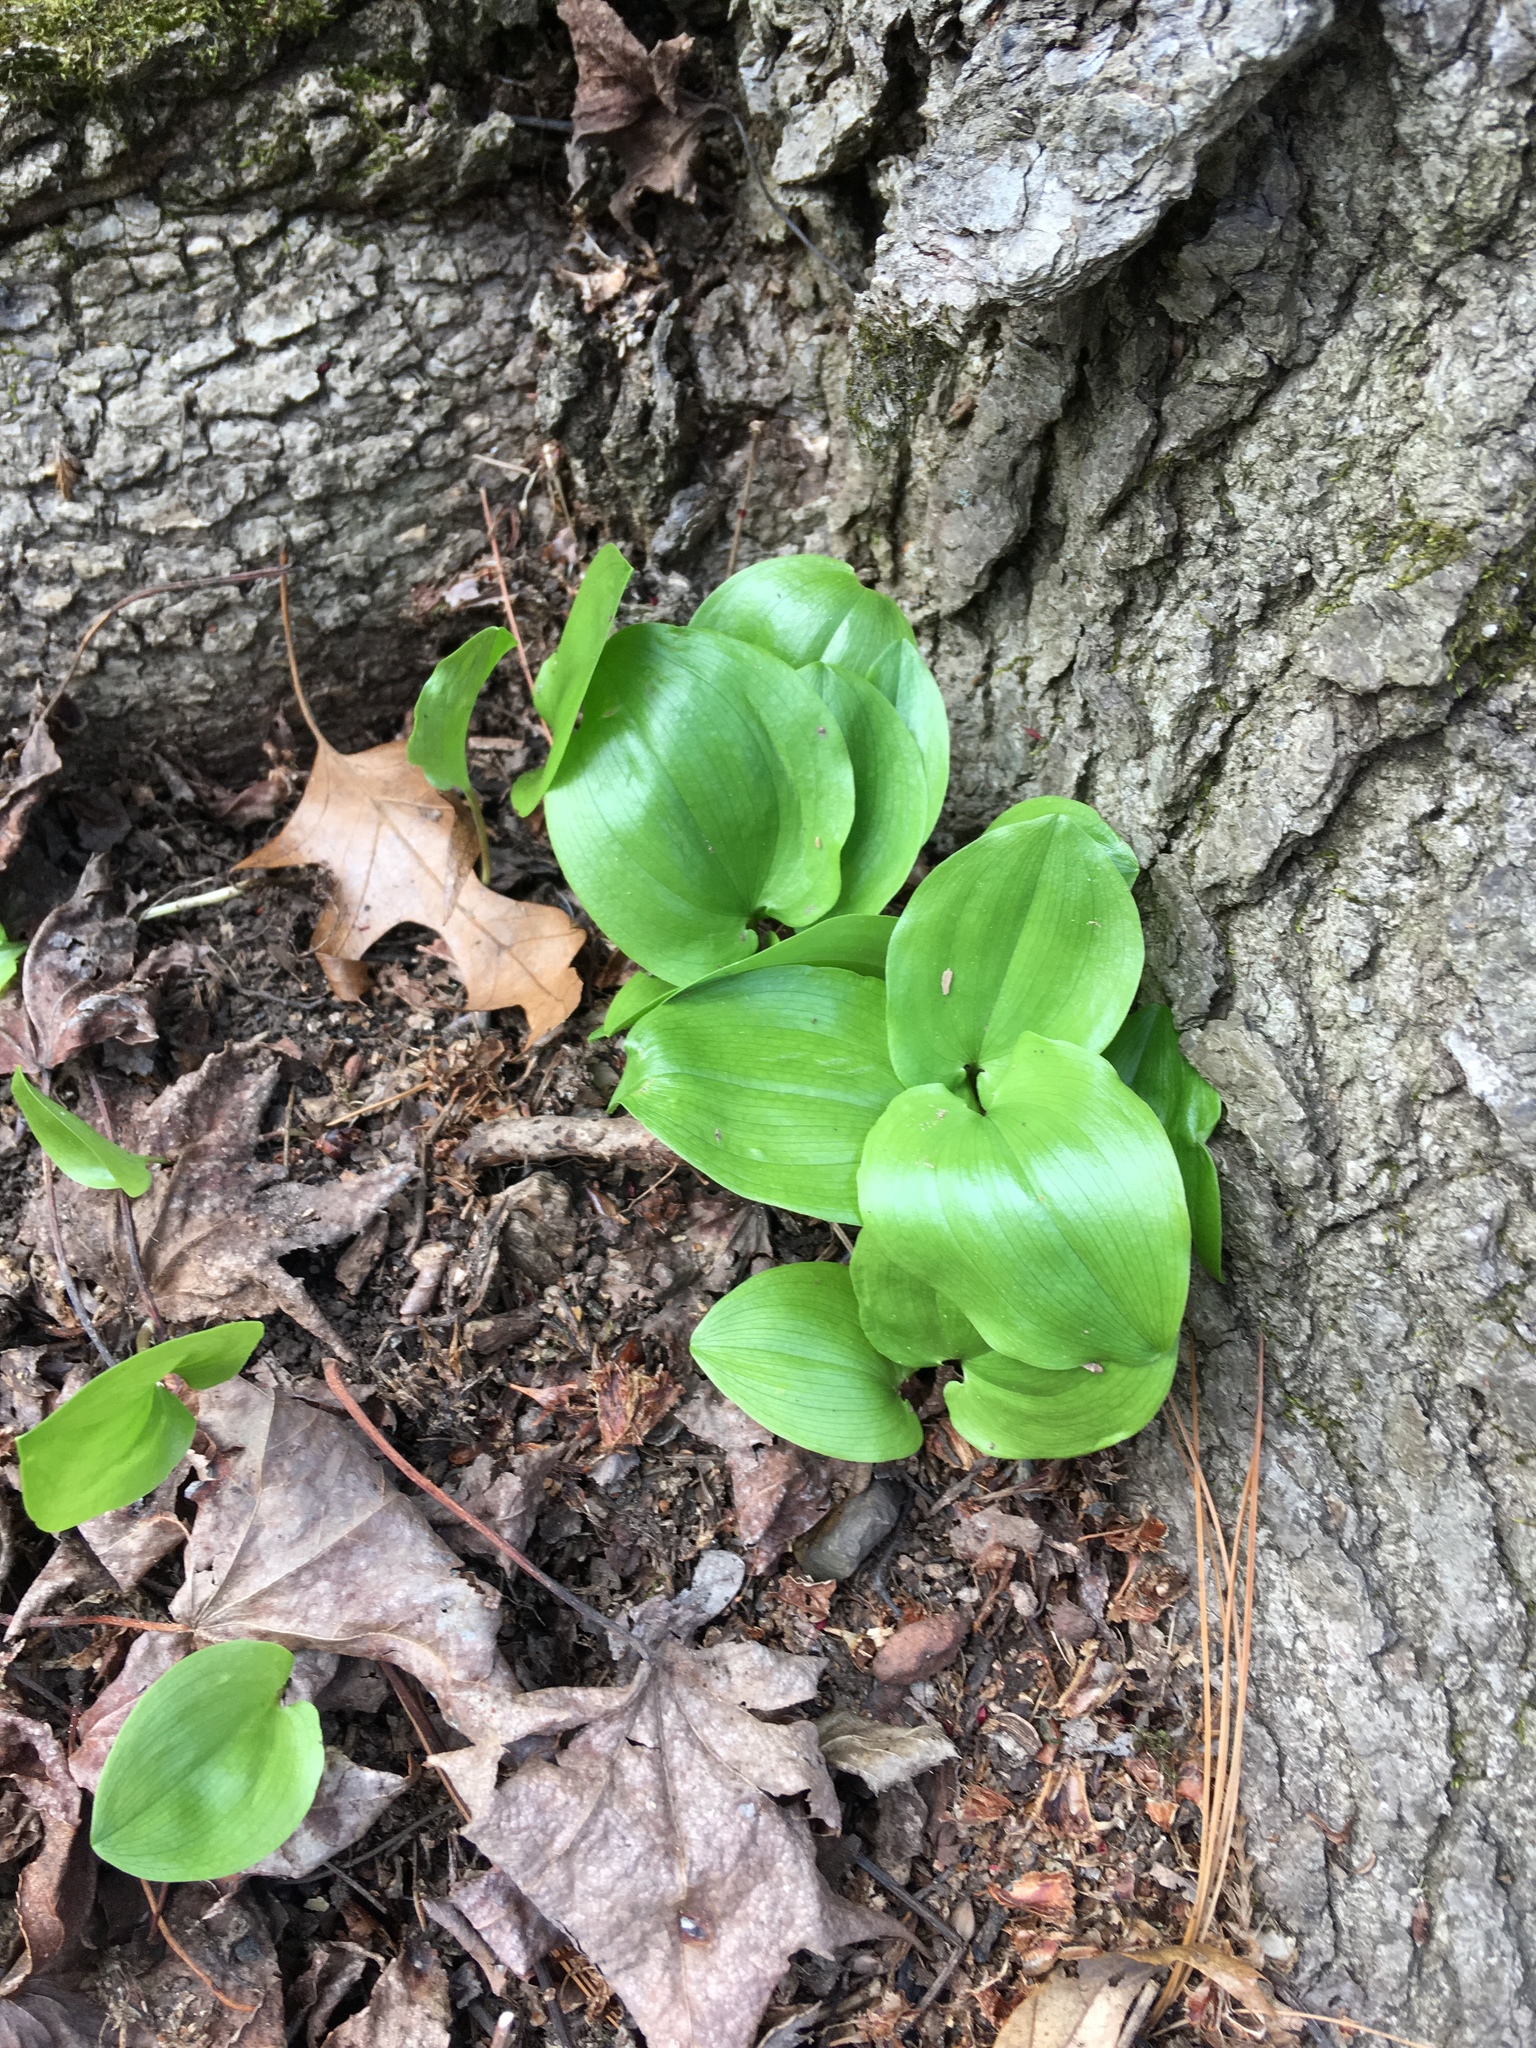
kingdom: Plantae
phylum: Tracheophyta
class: Liliopsida
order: Asparagales
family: Asparagaceae
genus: Maianthemum
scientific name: Maianthemum canadense
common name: False lily-of-the-valley
